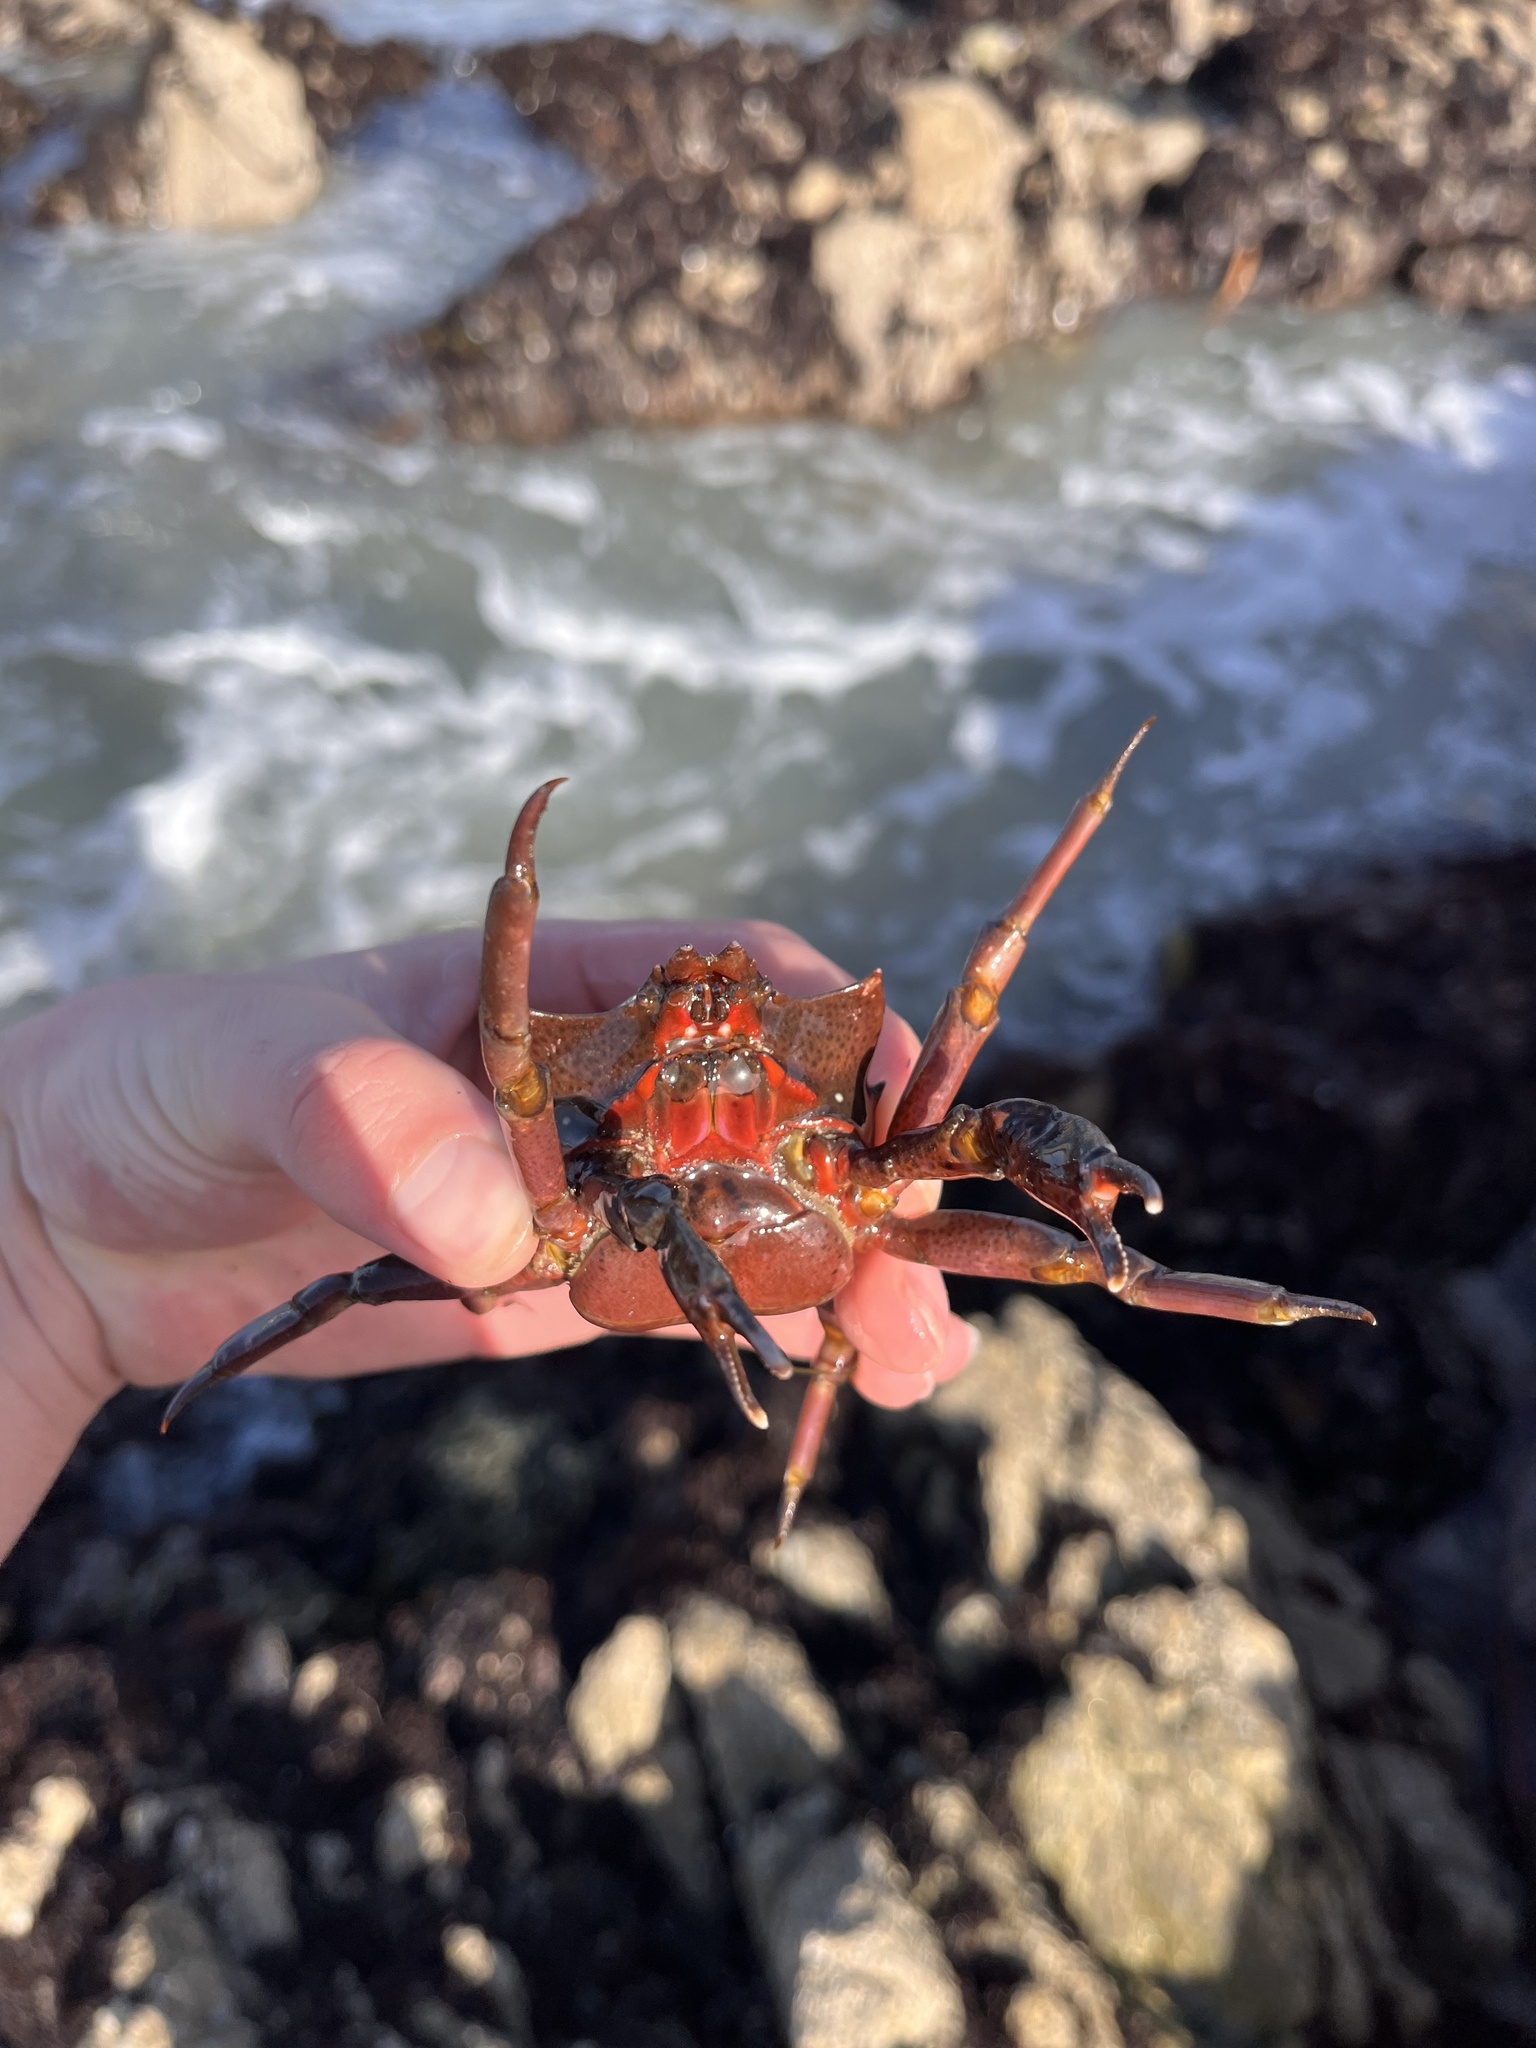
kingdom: Animalia
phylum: Arthropoda
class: Malacostraca
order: Decapoda
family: Epialtidae
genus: Pugettia
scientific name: Pugettia producta
